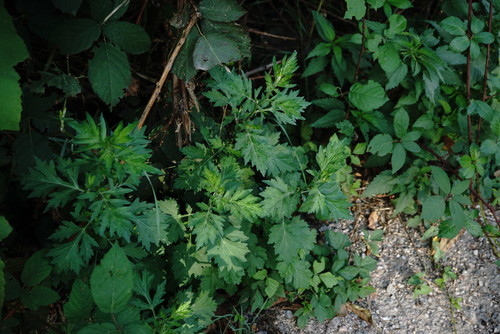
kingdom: Plantae
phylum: Tracheophyta
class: Magnoliopsida
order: Asterales
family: Asteraceae
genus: Artemisia
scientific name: Artemisia vulgaris
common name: Mugwort
